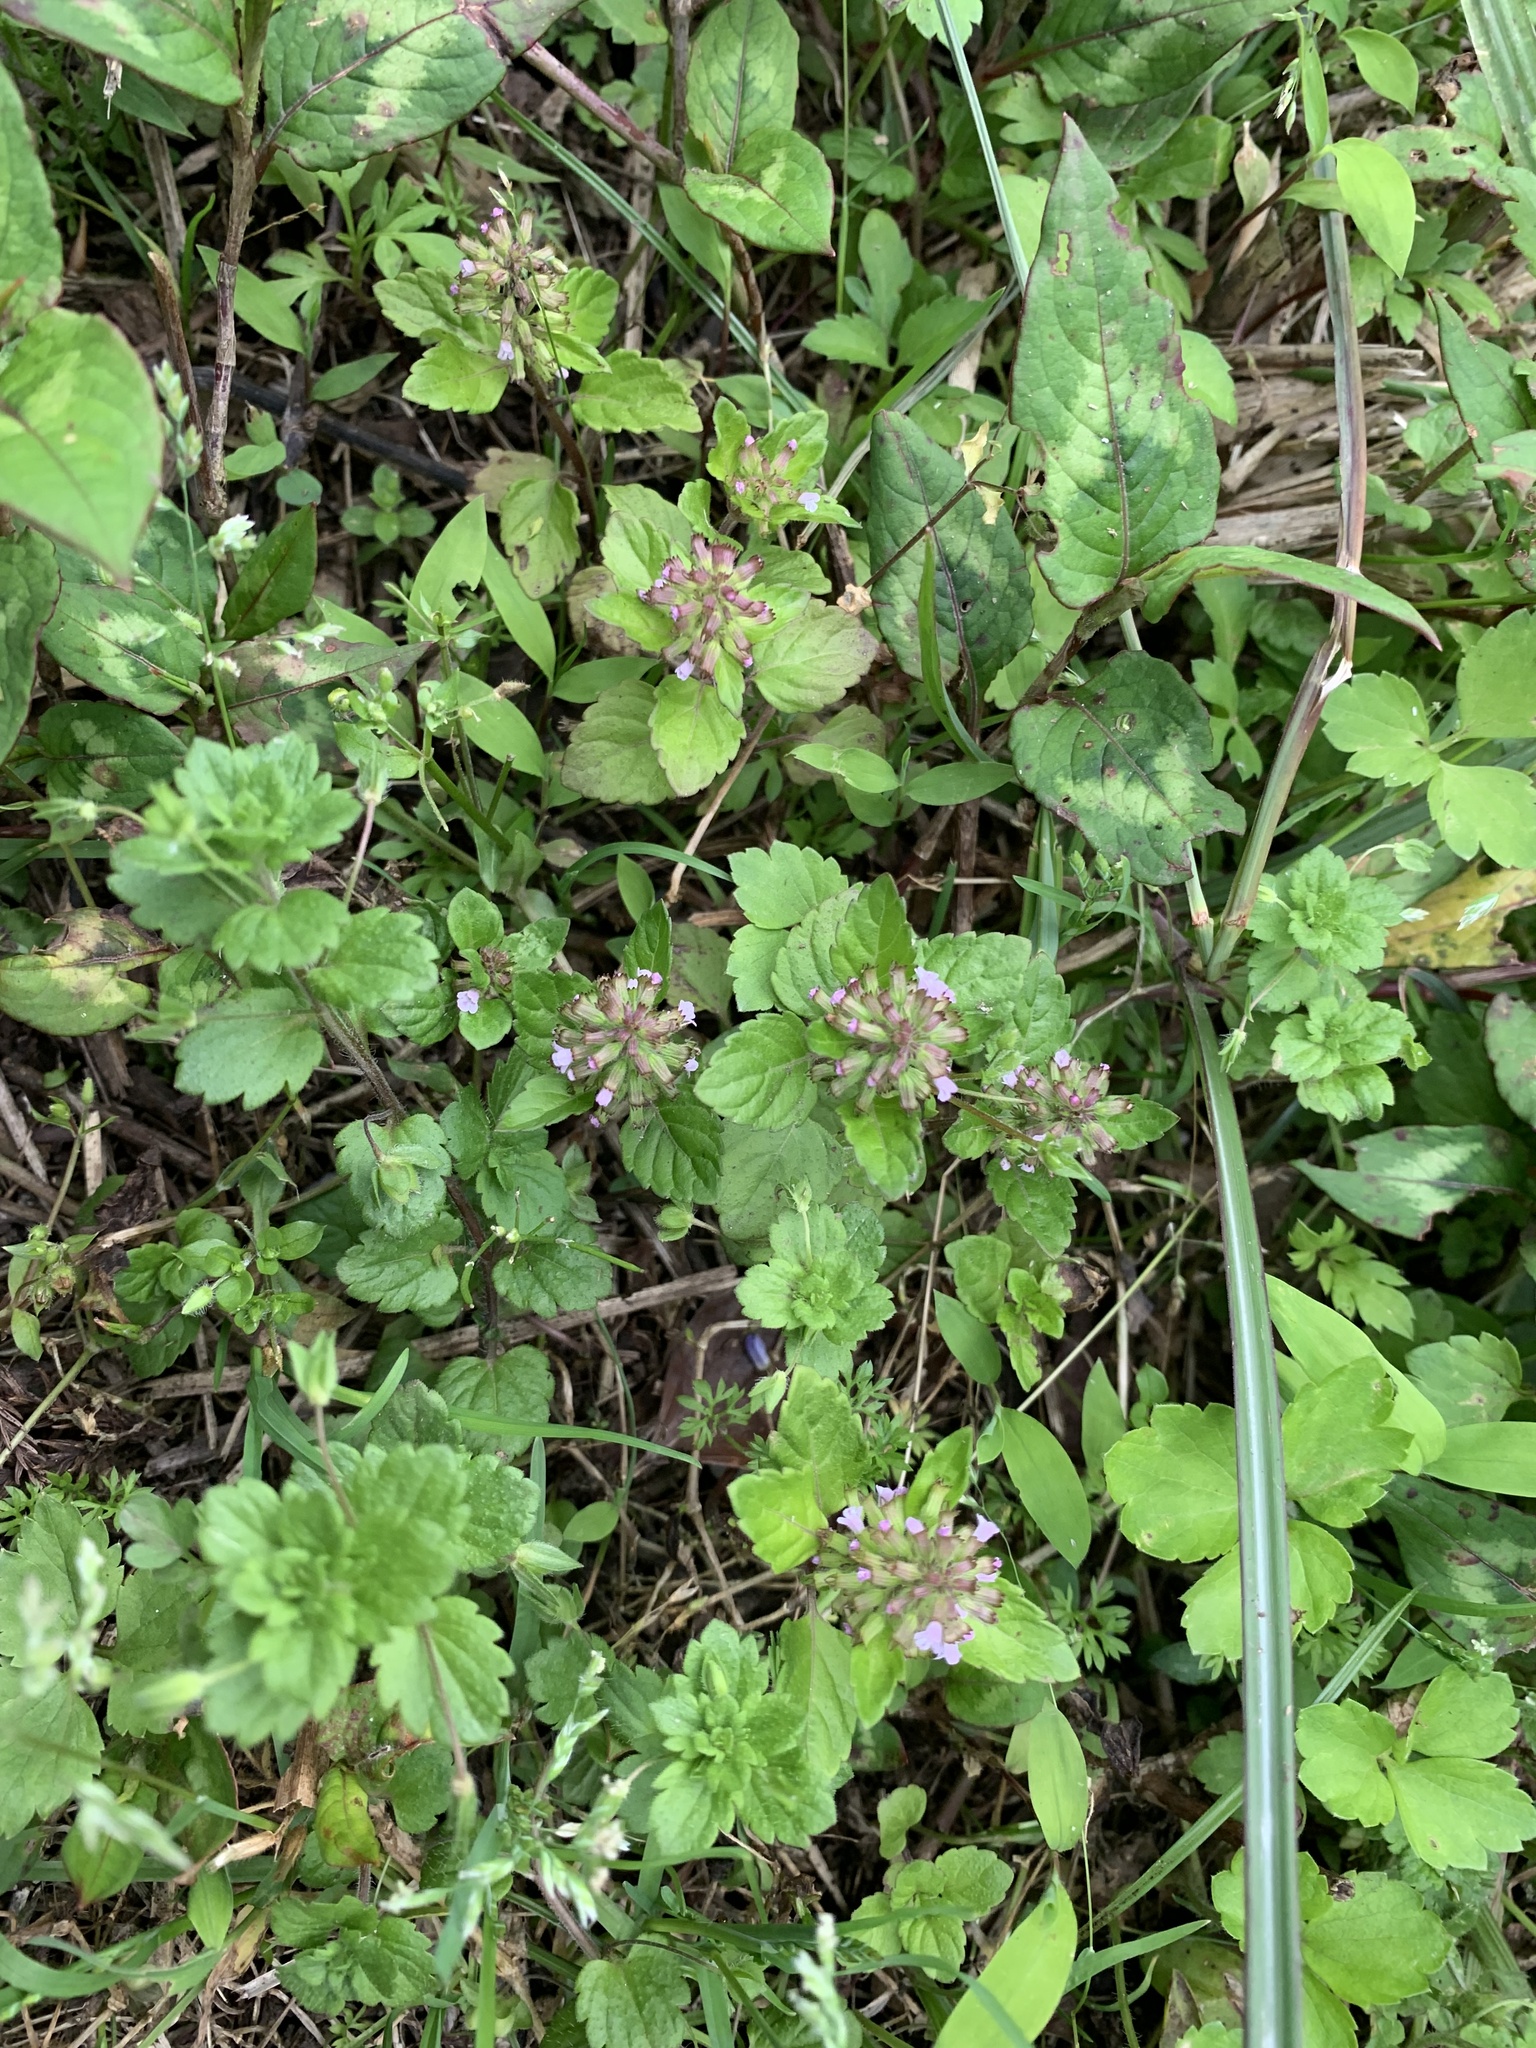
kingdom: Plantae
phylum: Tracheophyta
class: Magnoliopsida
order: Lamiales
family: Lamiaceae
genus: Clinopodium
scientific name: Clinopodium gracile
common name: Slender wild basil
